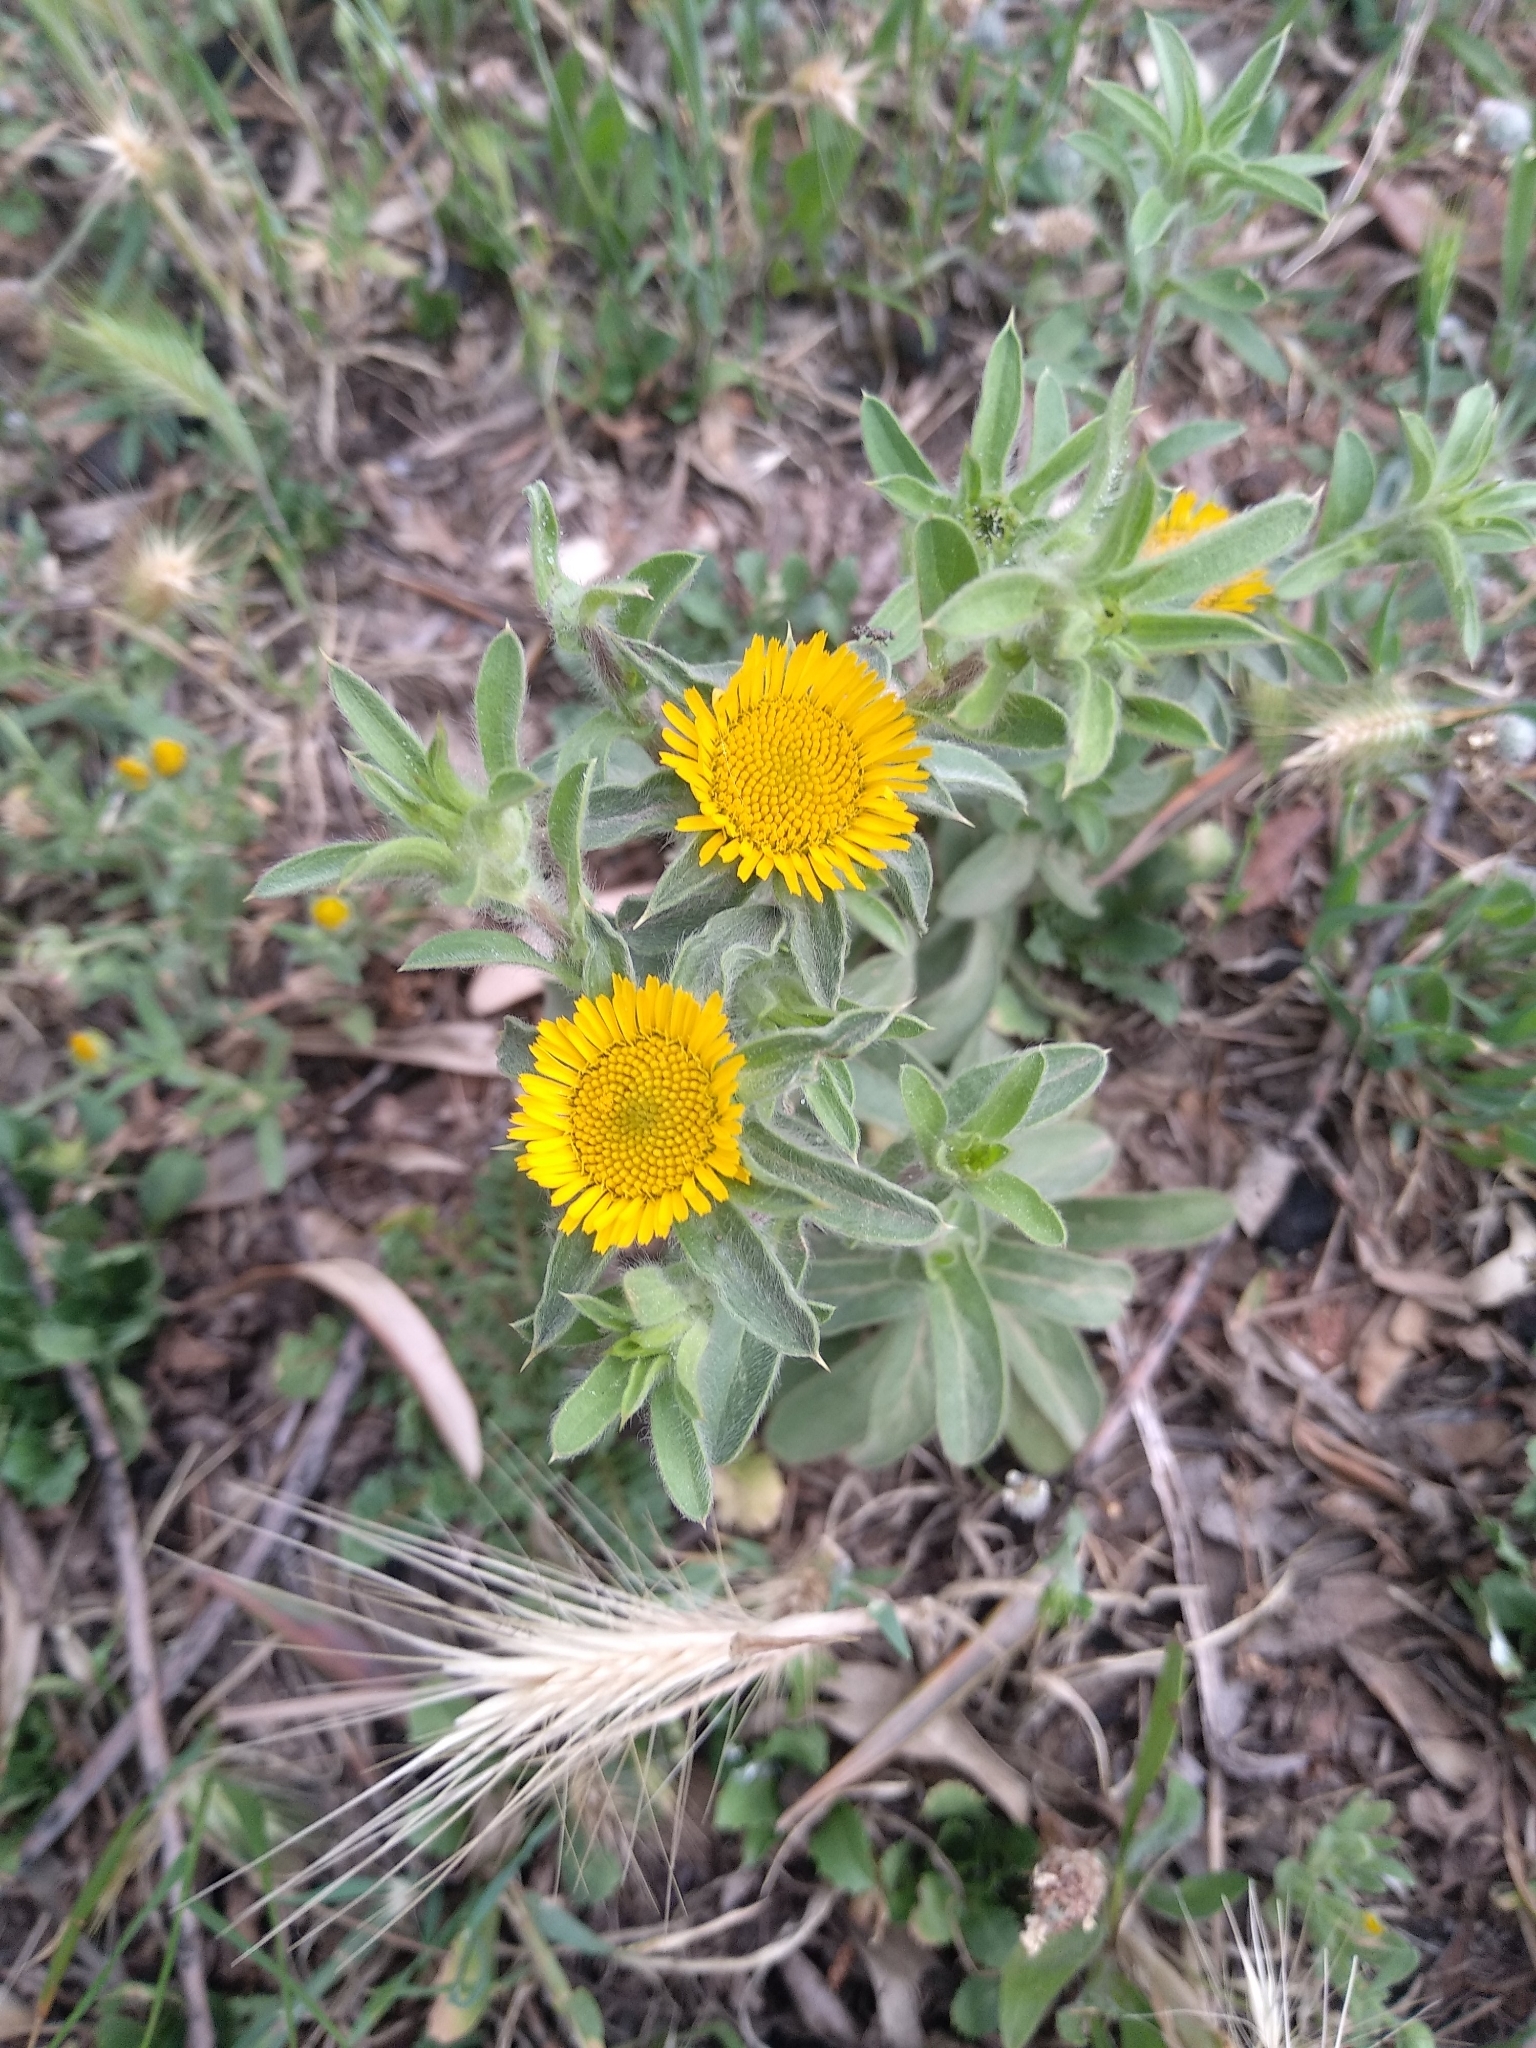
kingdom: Plantae
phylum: Tracheophyta
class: Magnoliopsida
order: Asterales
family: Asteraceae
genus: Pallenis
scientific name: Pallenis spinosa
